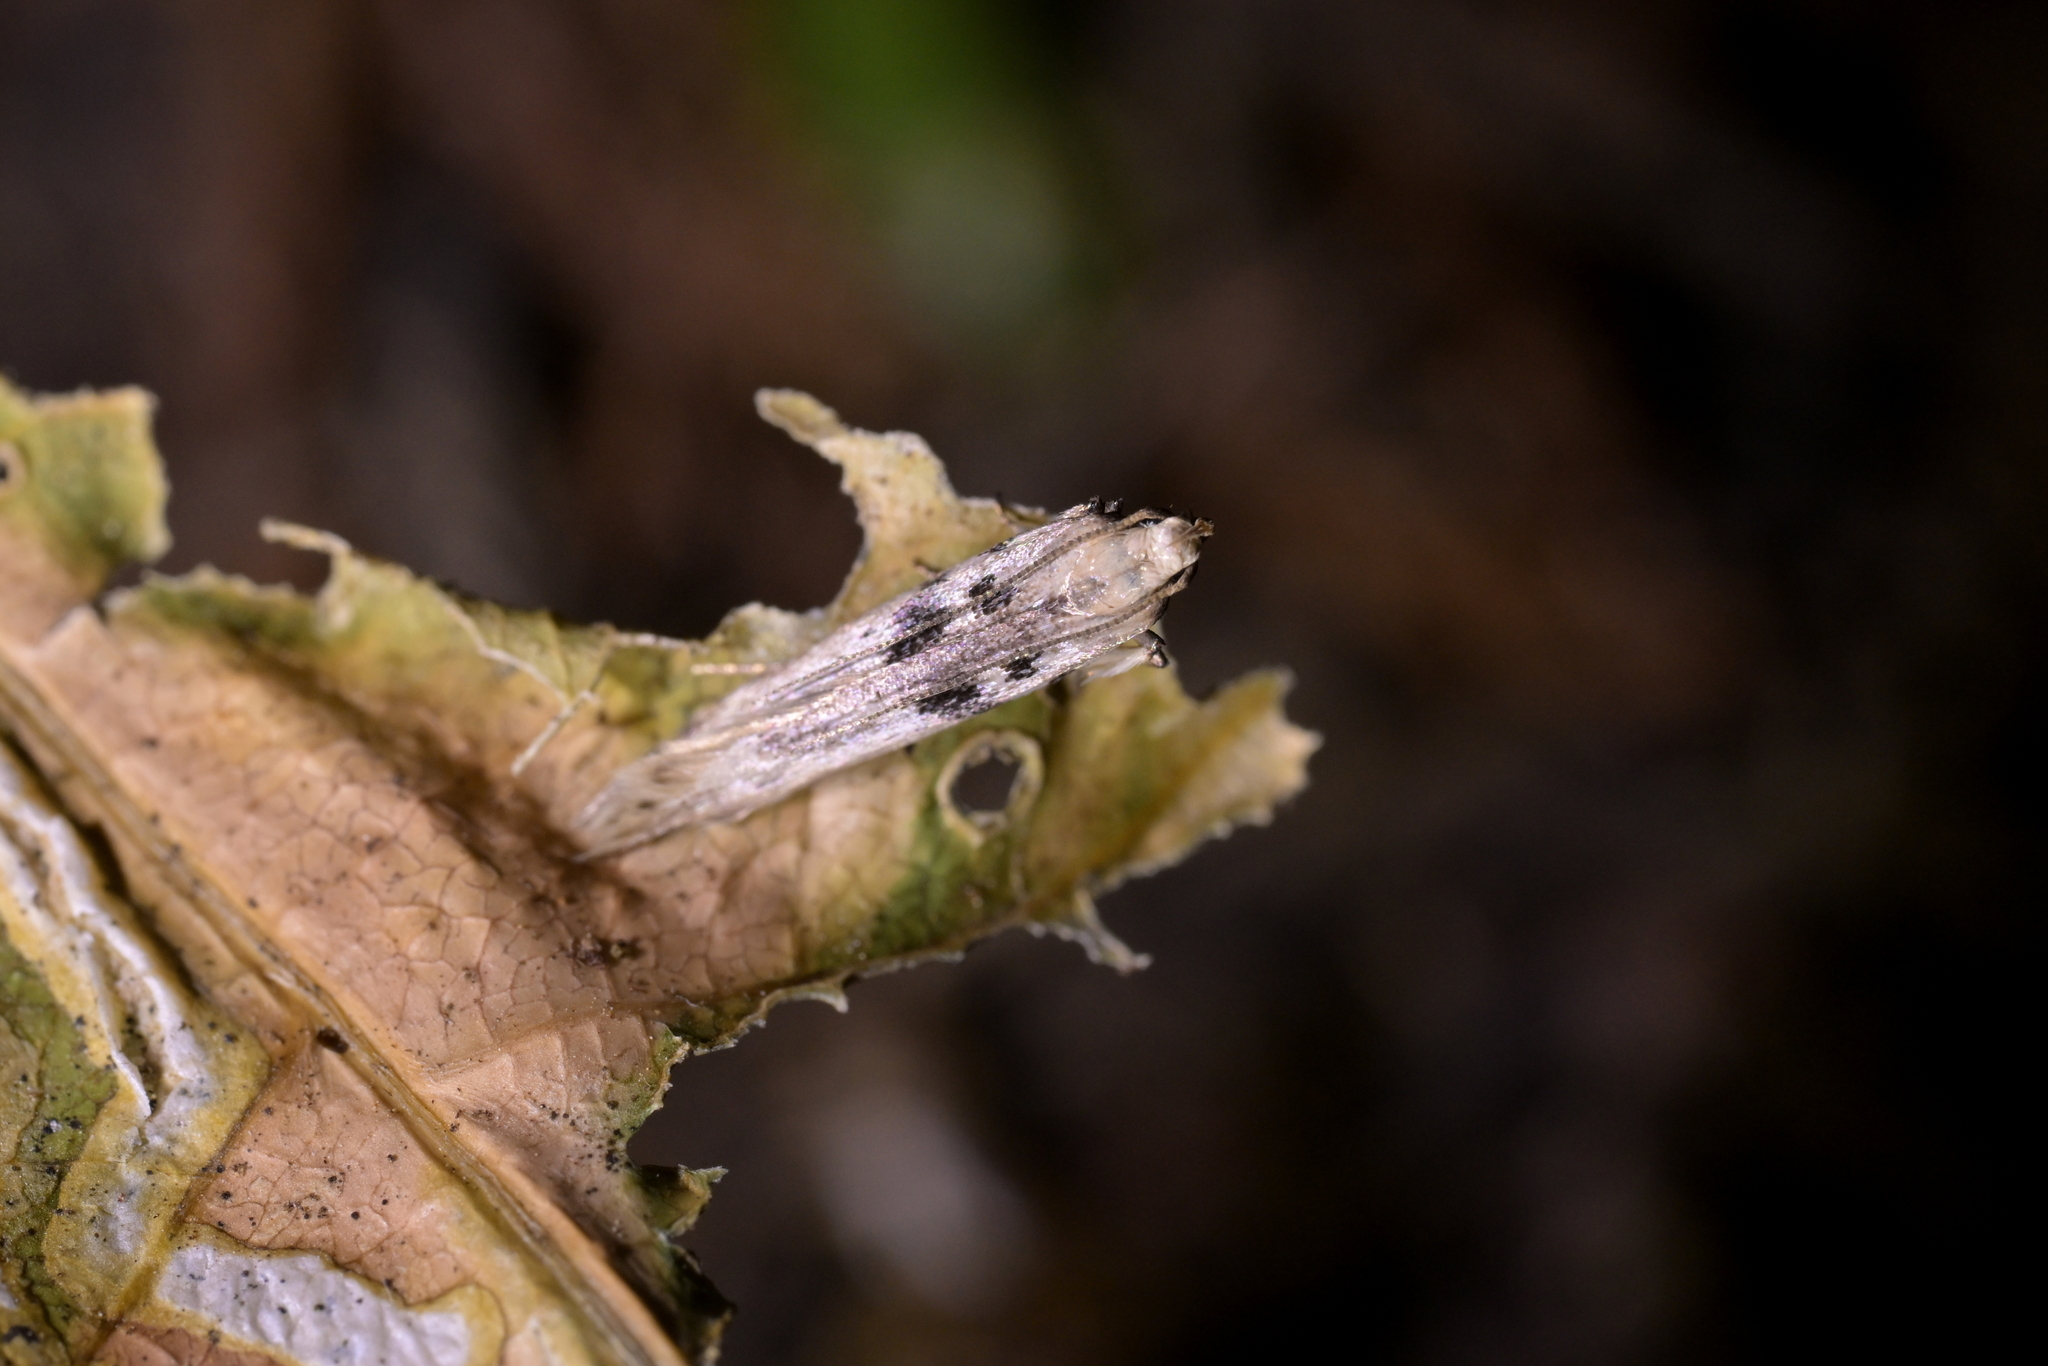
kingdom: Animalia
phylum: Arthropoda
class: Insecta
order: Lepidoptera
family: Gelechiidae
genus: Aristotelia
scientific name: Aristotelia paradesma
